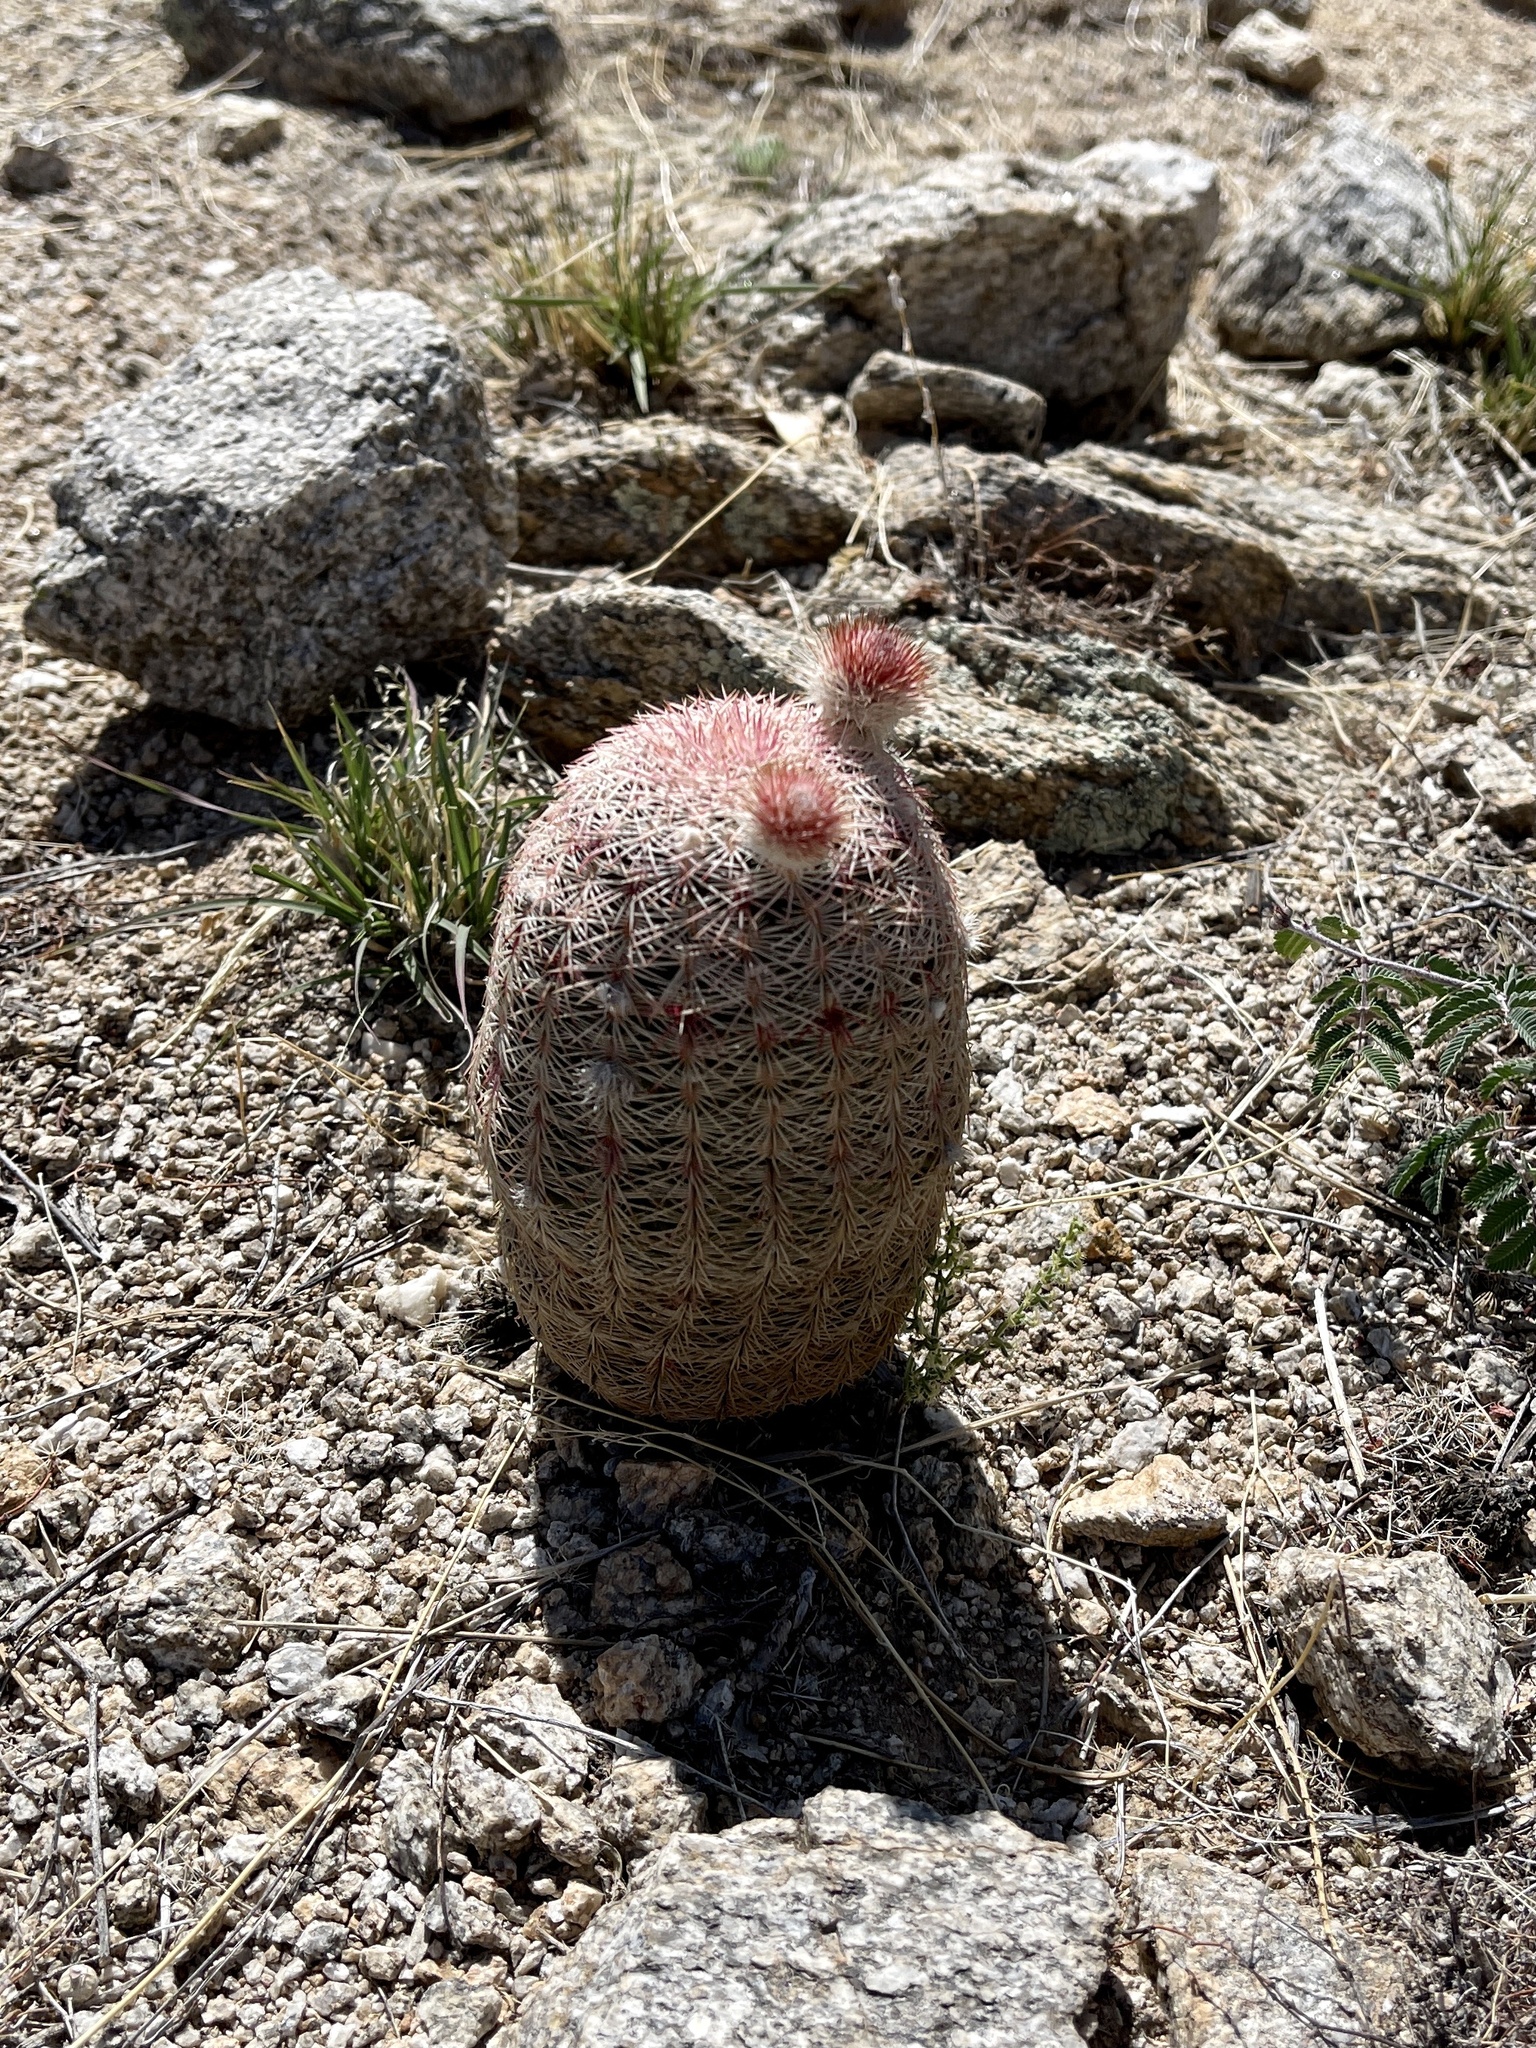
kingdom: Plantae
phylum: Tracheophyta
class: Magnoliopsida
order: Caryophyllales
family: Cactaceae
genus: Echinocereus
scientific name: Echinocereus rigidissimus
